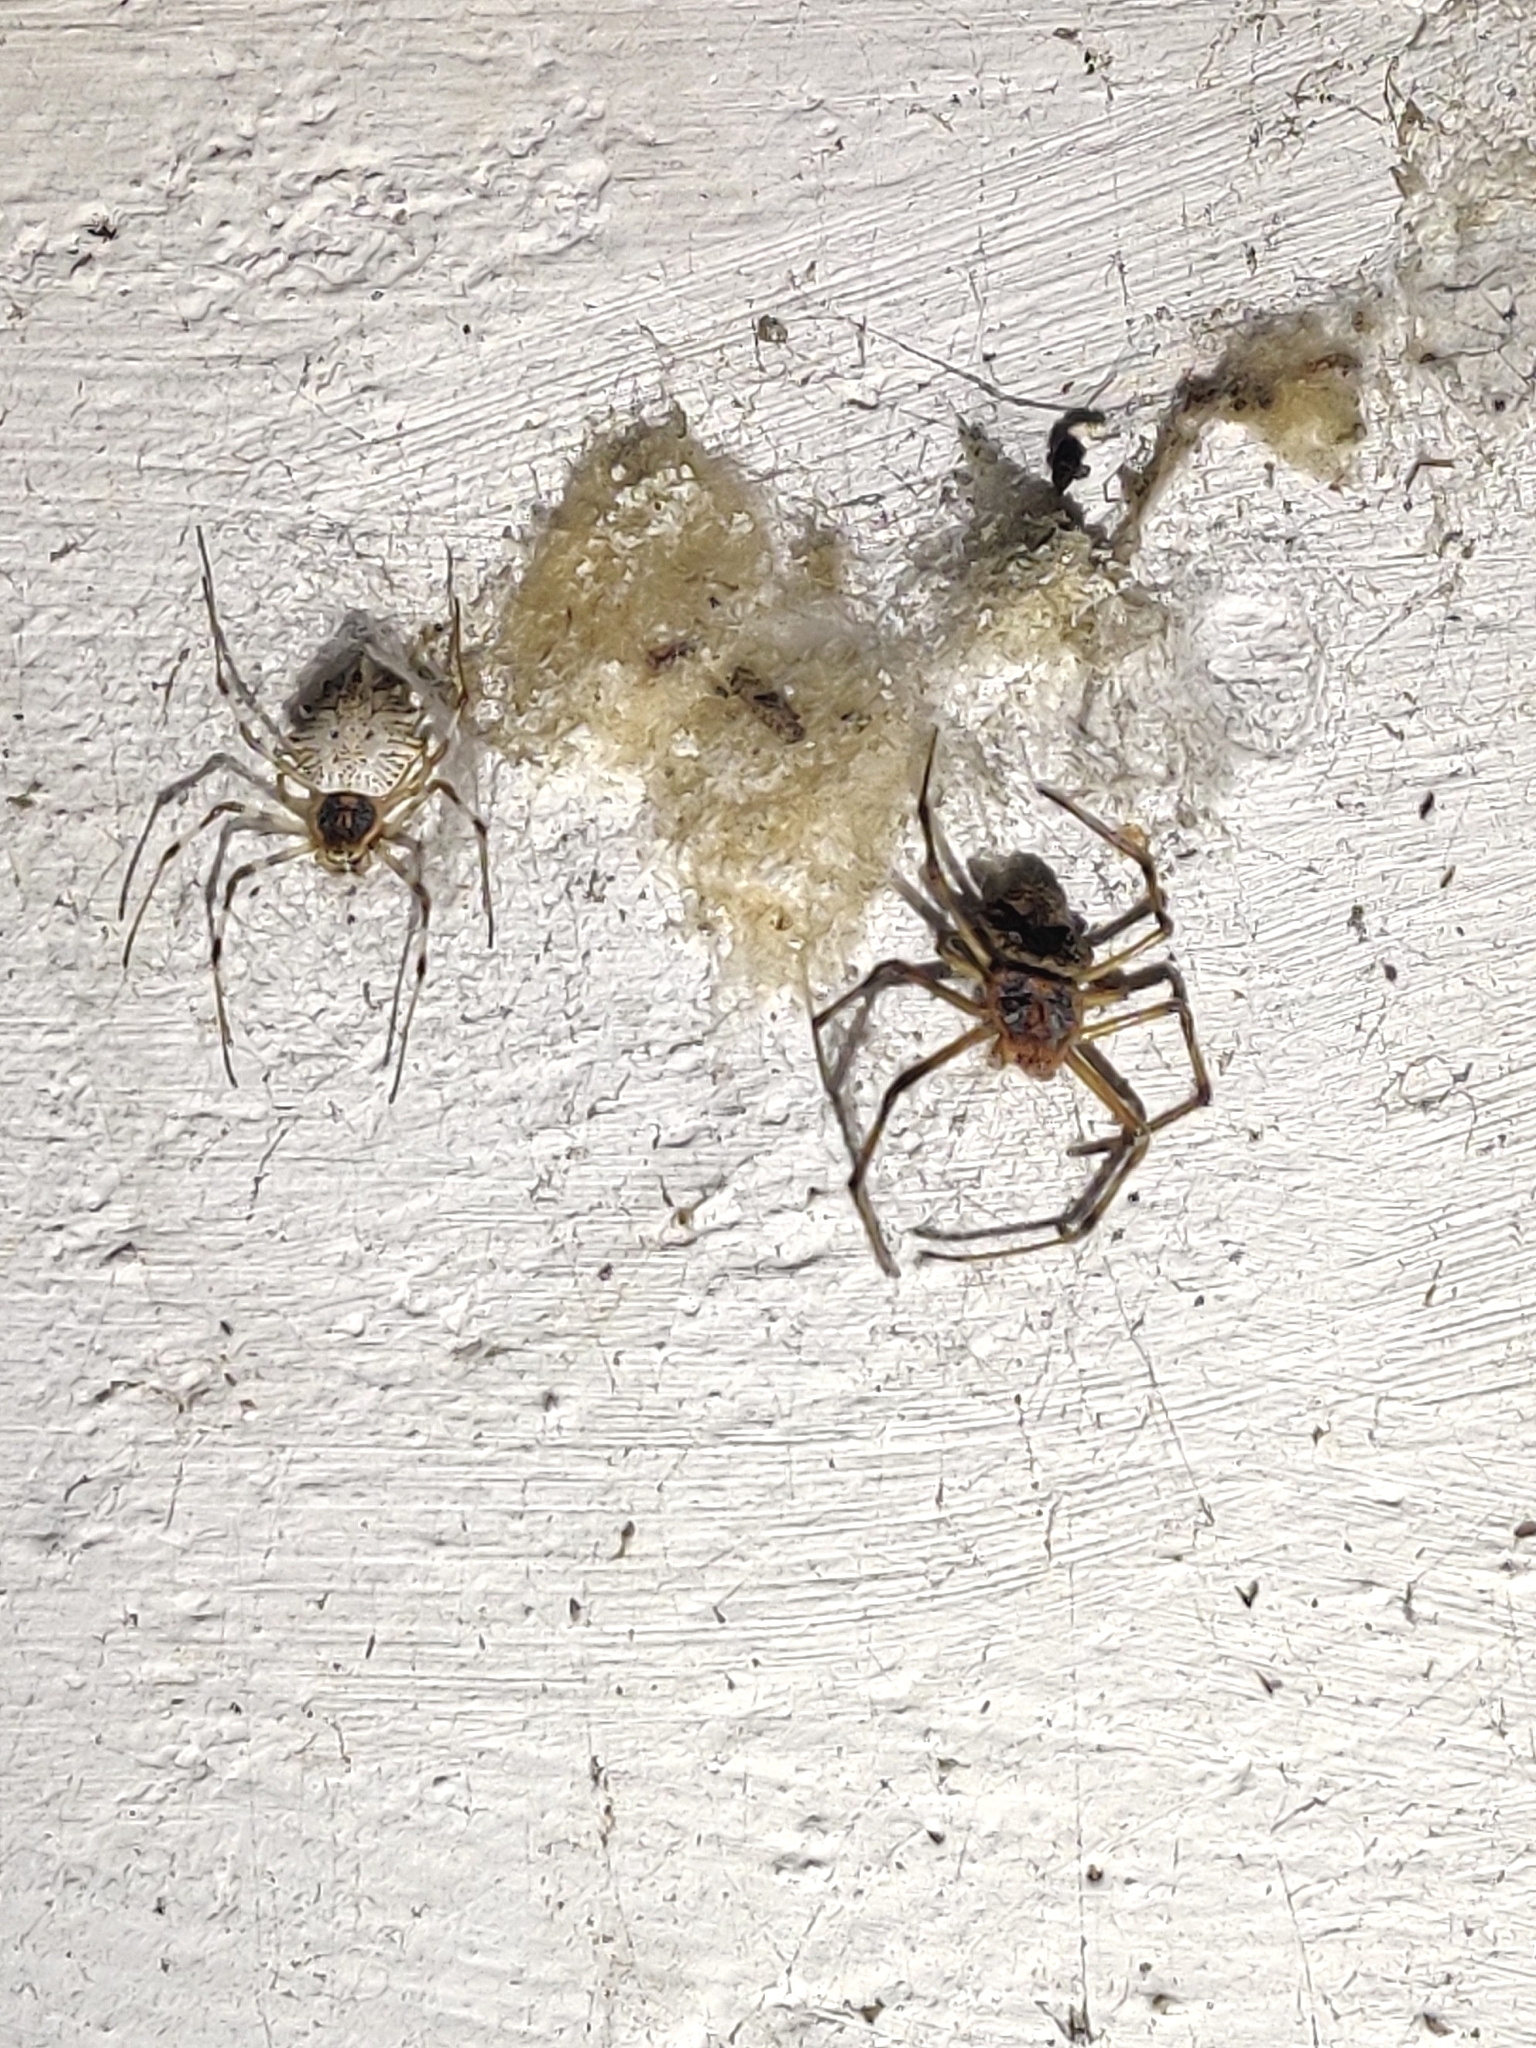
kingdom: Animalia
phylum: Arthropoda
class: Arachnida
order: Araneae
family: Araneidae
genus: Herennia
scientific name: Herennia multipuncta
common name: Spotted coin spider
